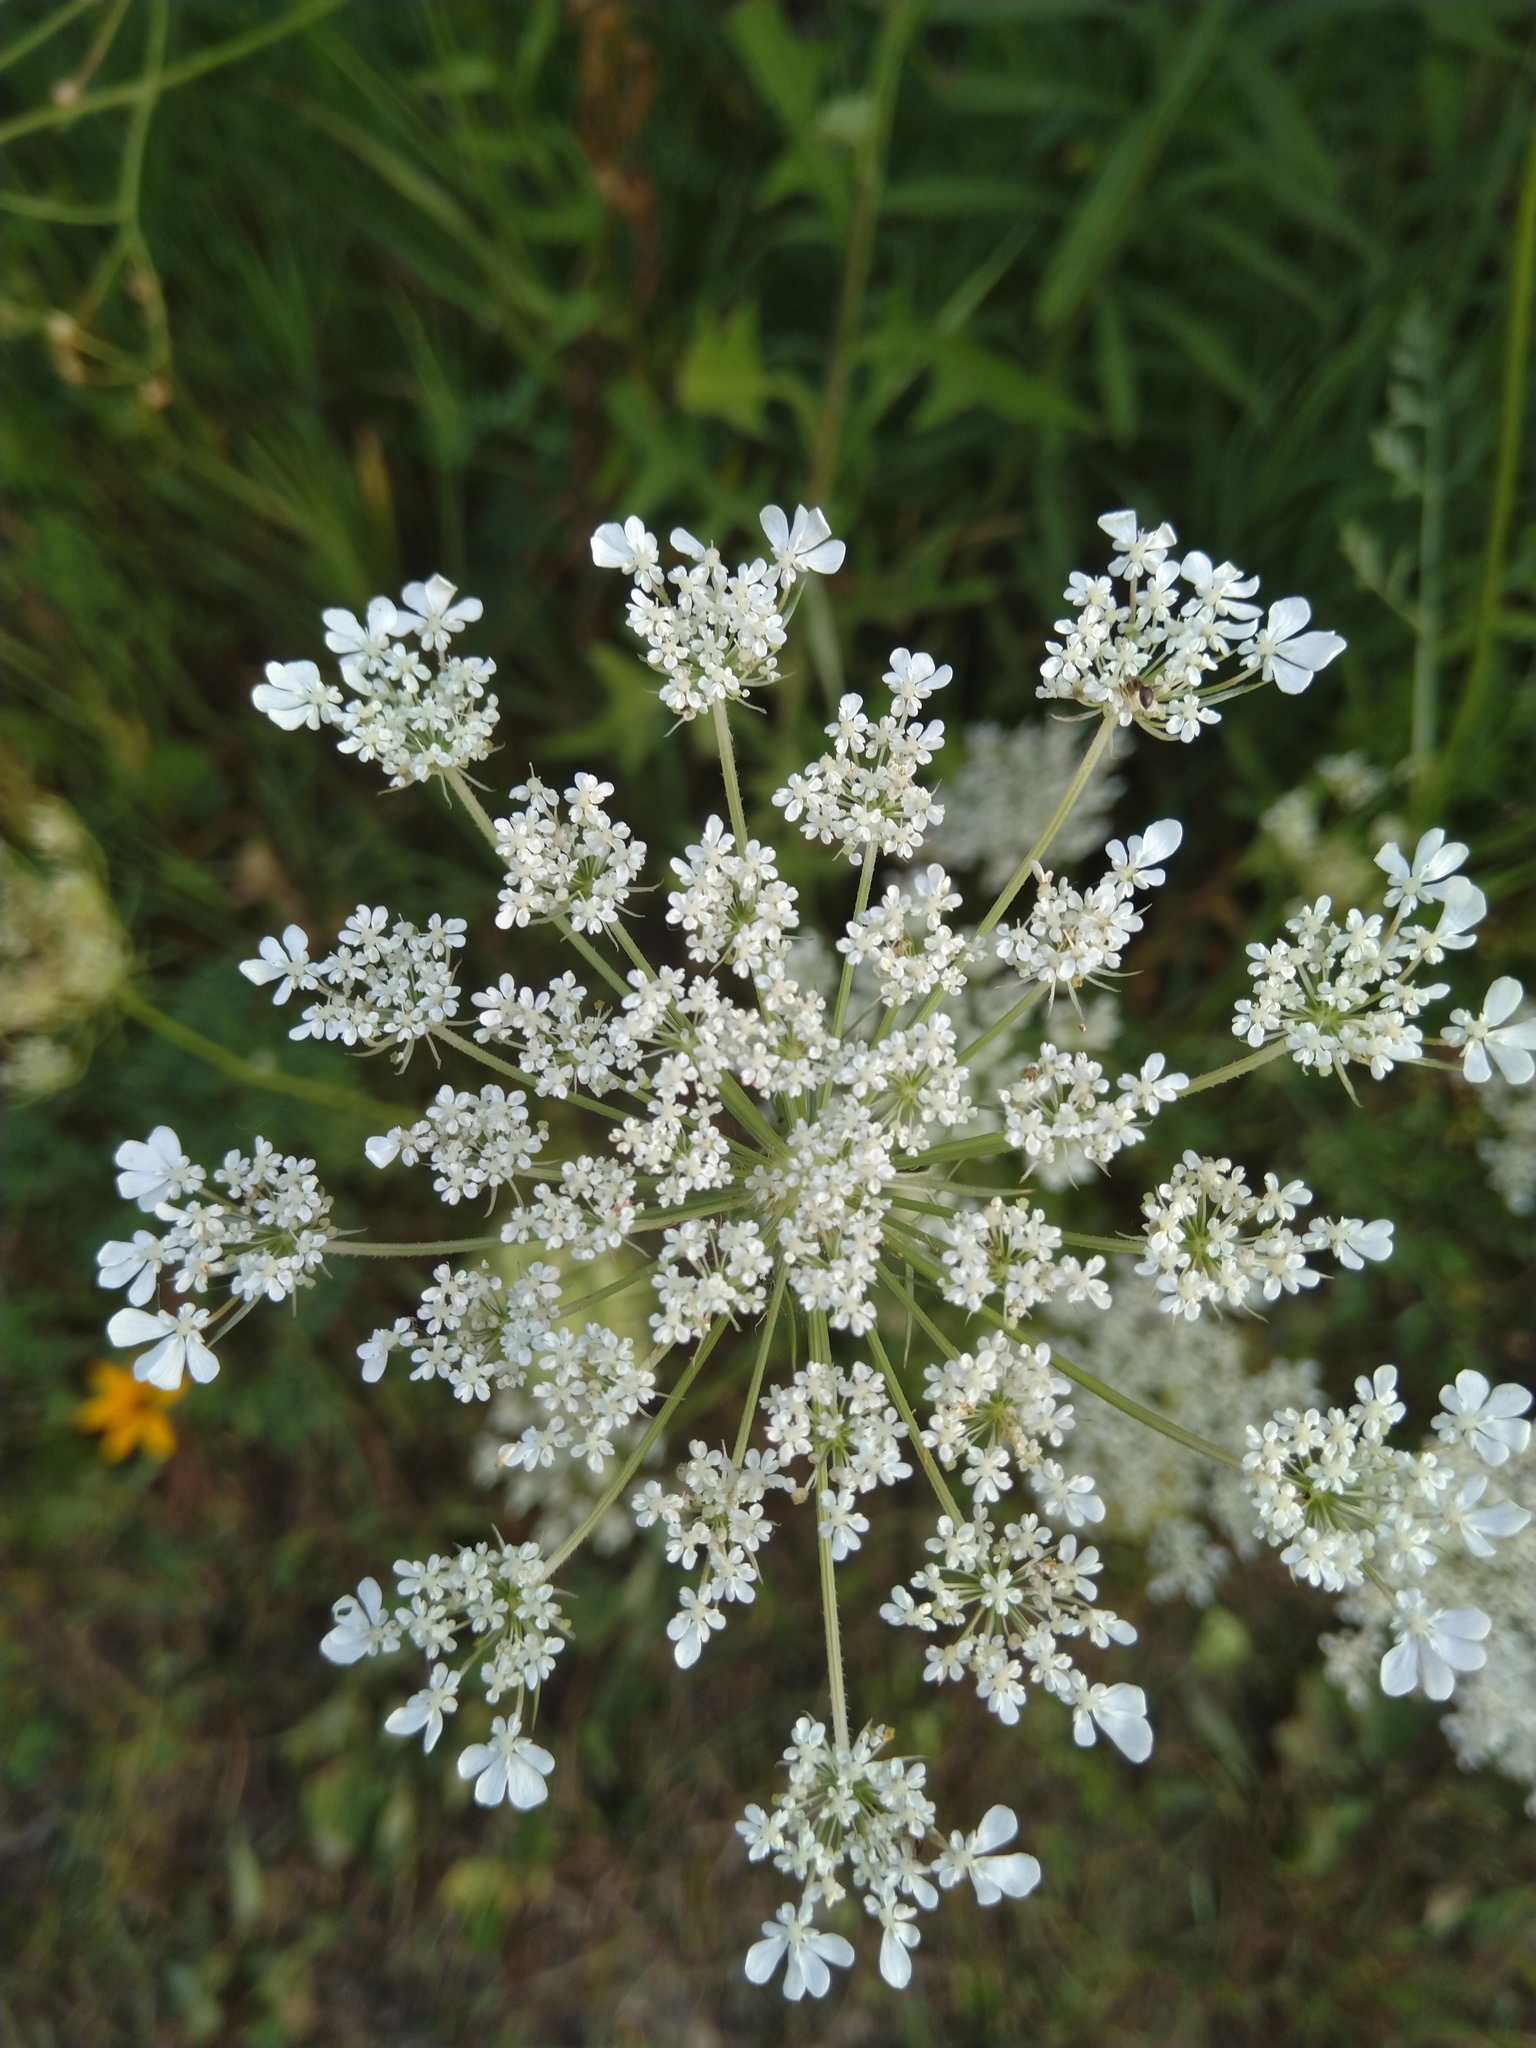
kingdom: Plantae
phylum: Tracheophyta
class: Magnoliopsida
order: Apiales
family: Apiaceae
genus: Daucus
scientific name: Daucus carota
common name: Wild carrot
